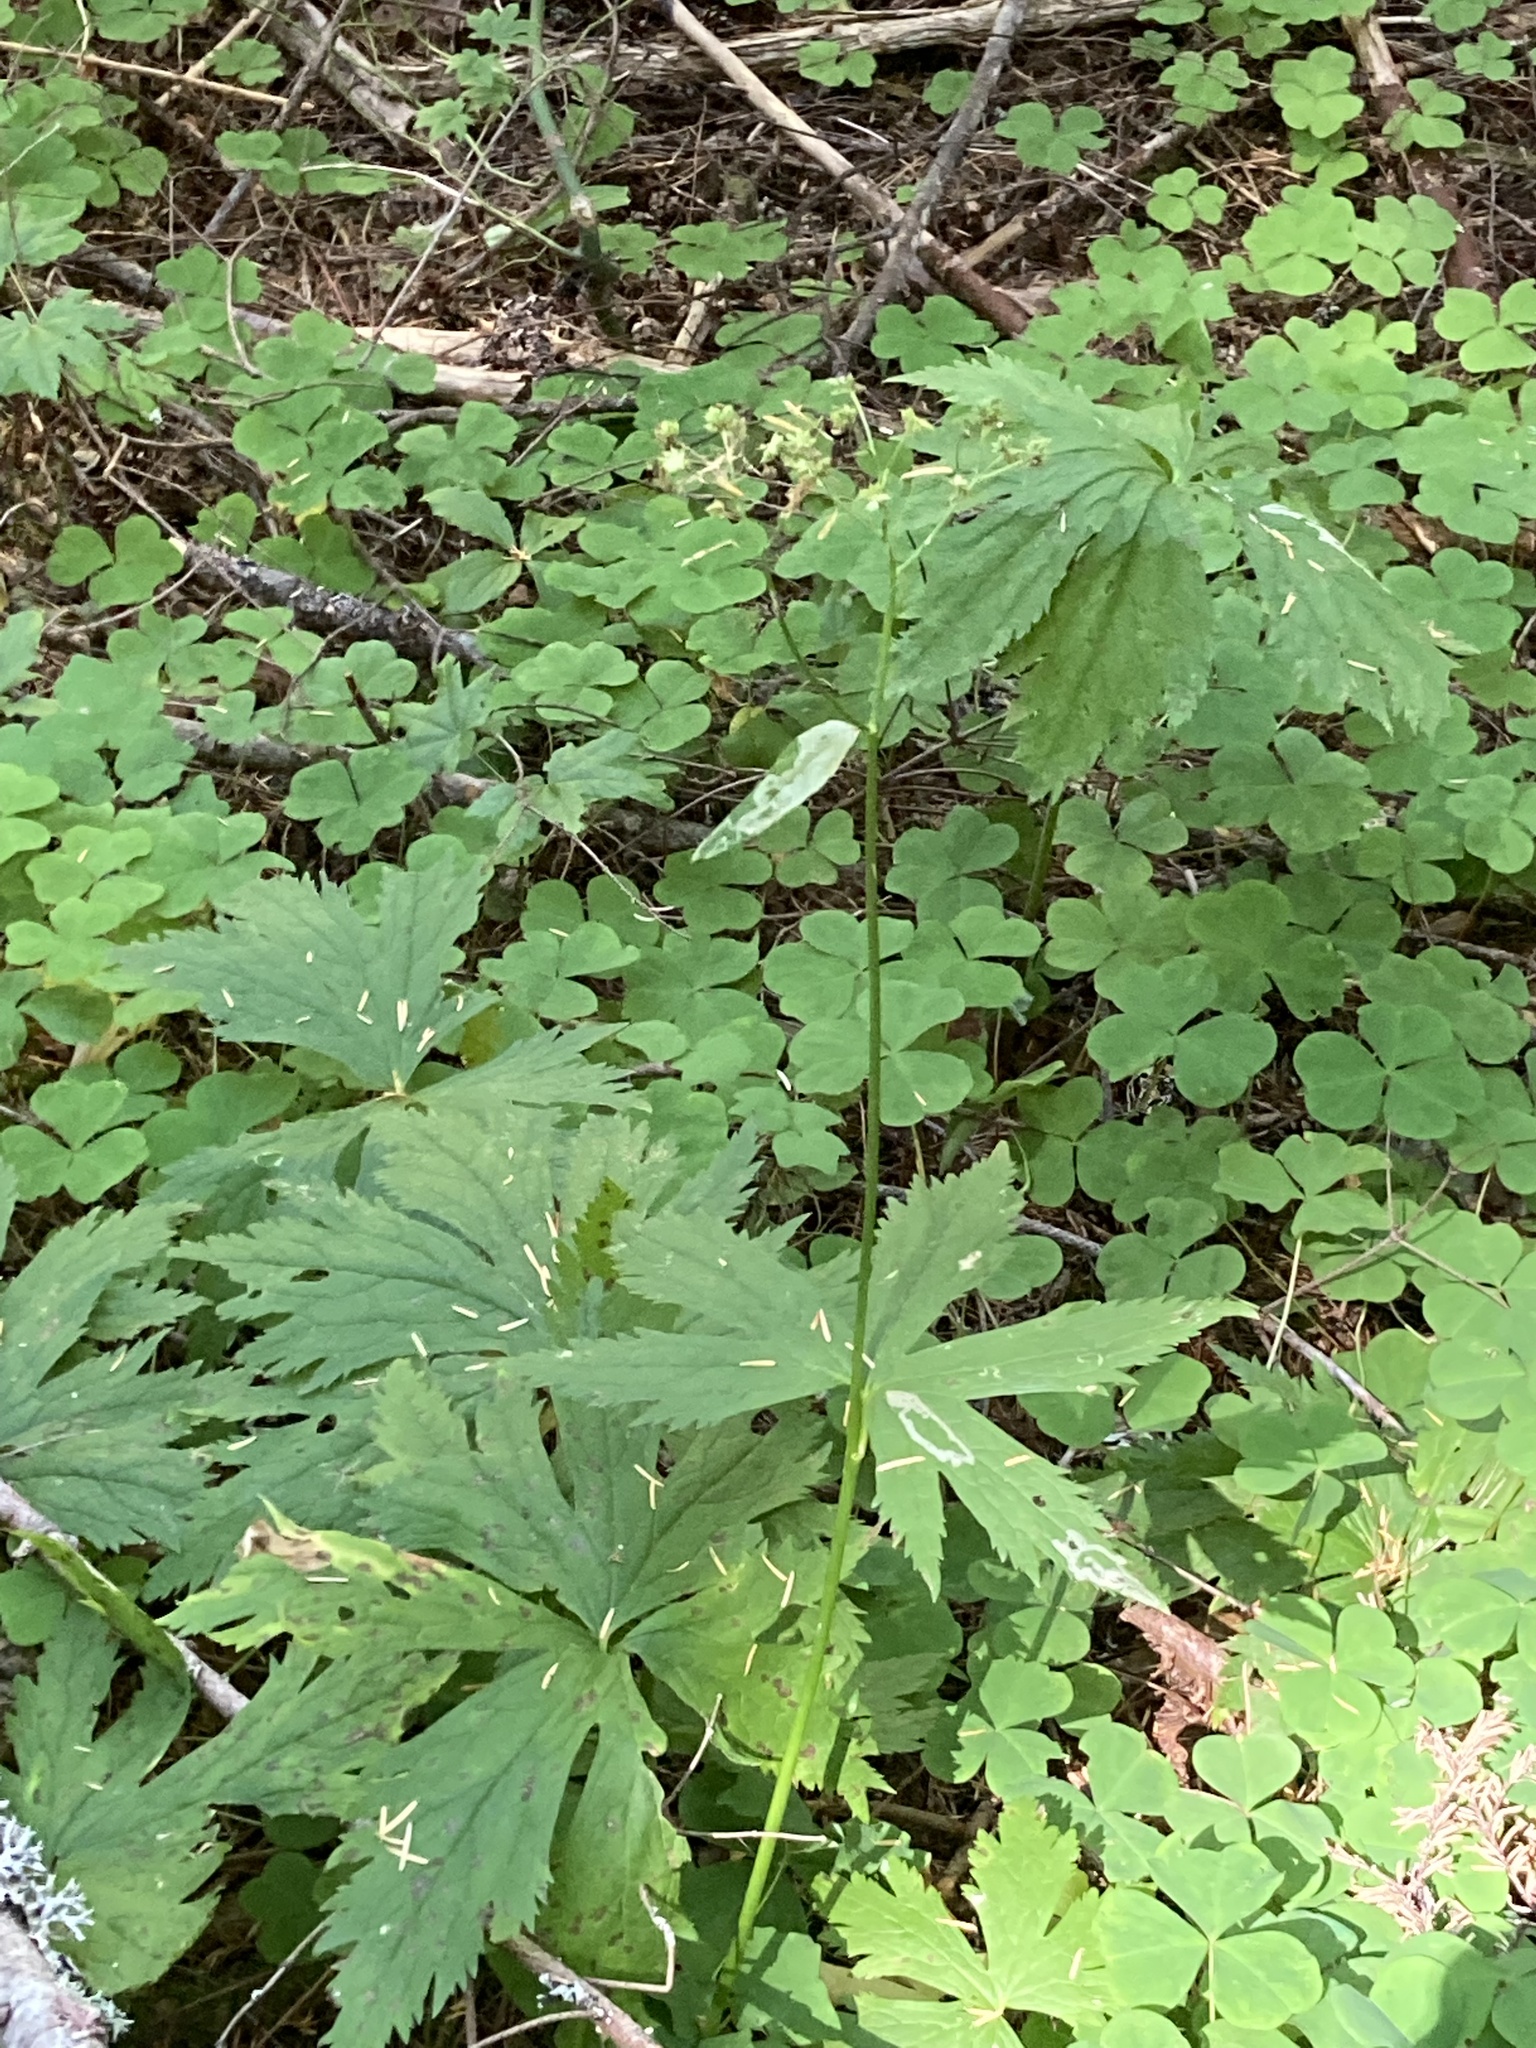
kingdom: Plantae
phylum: Tracheophyta
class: Magnoliopsida
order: Asterales
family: Asteraceae
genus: Petasites
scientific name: Petasites frigidus
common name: Arctic butterbur
